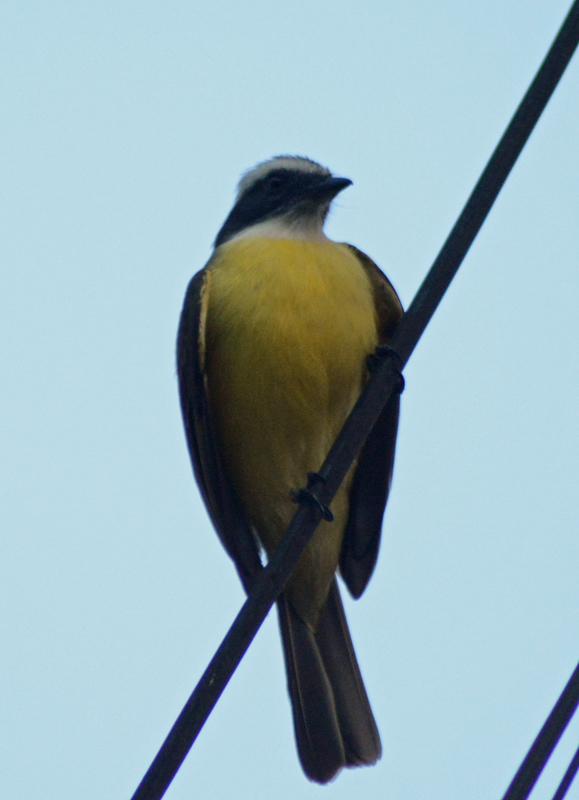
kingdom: Animalia
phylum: Chordata
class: Aves
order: Passeriformes
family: Tyrannidae
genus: Myiozetetes
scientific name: Myiozetetes similis
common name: Social flycatcher
